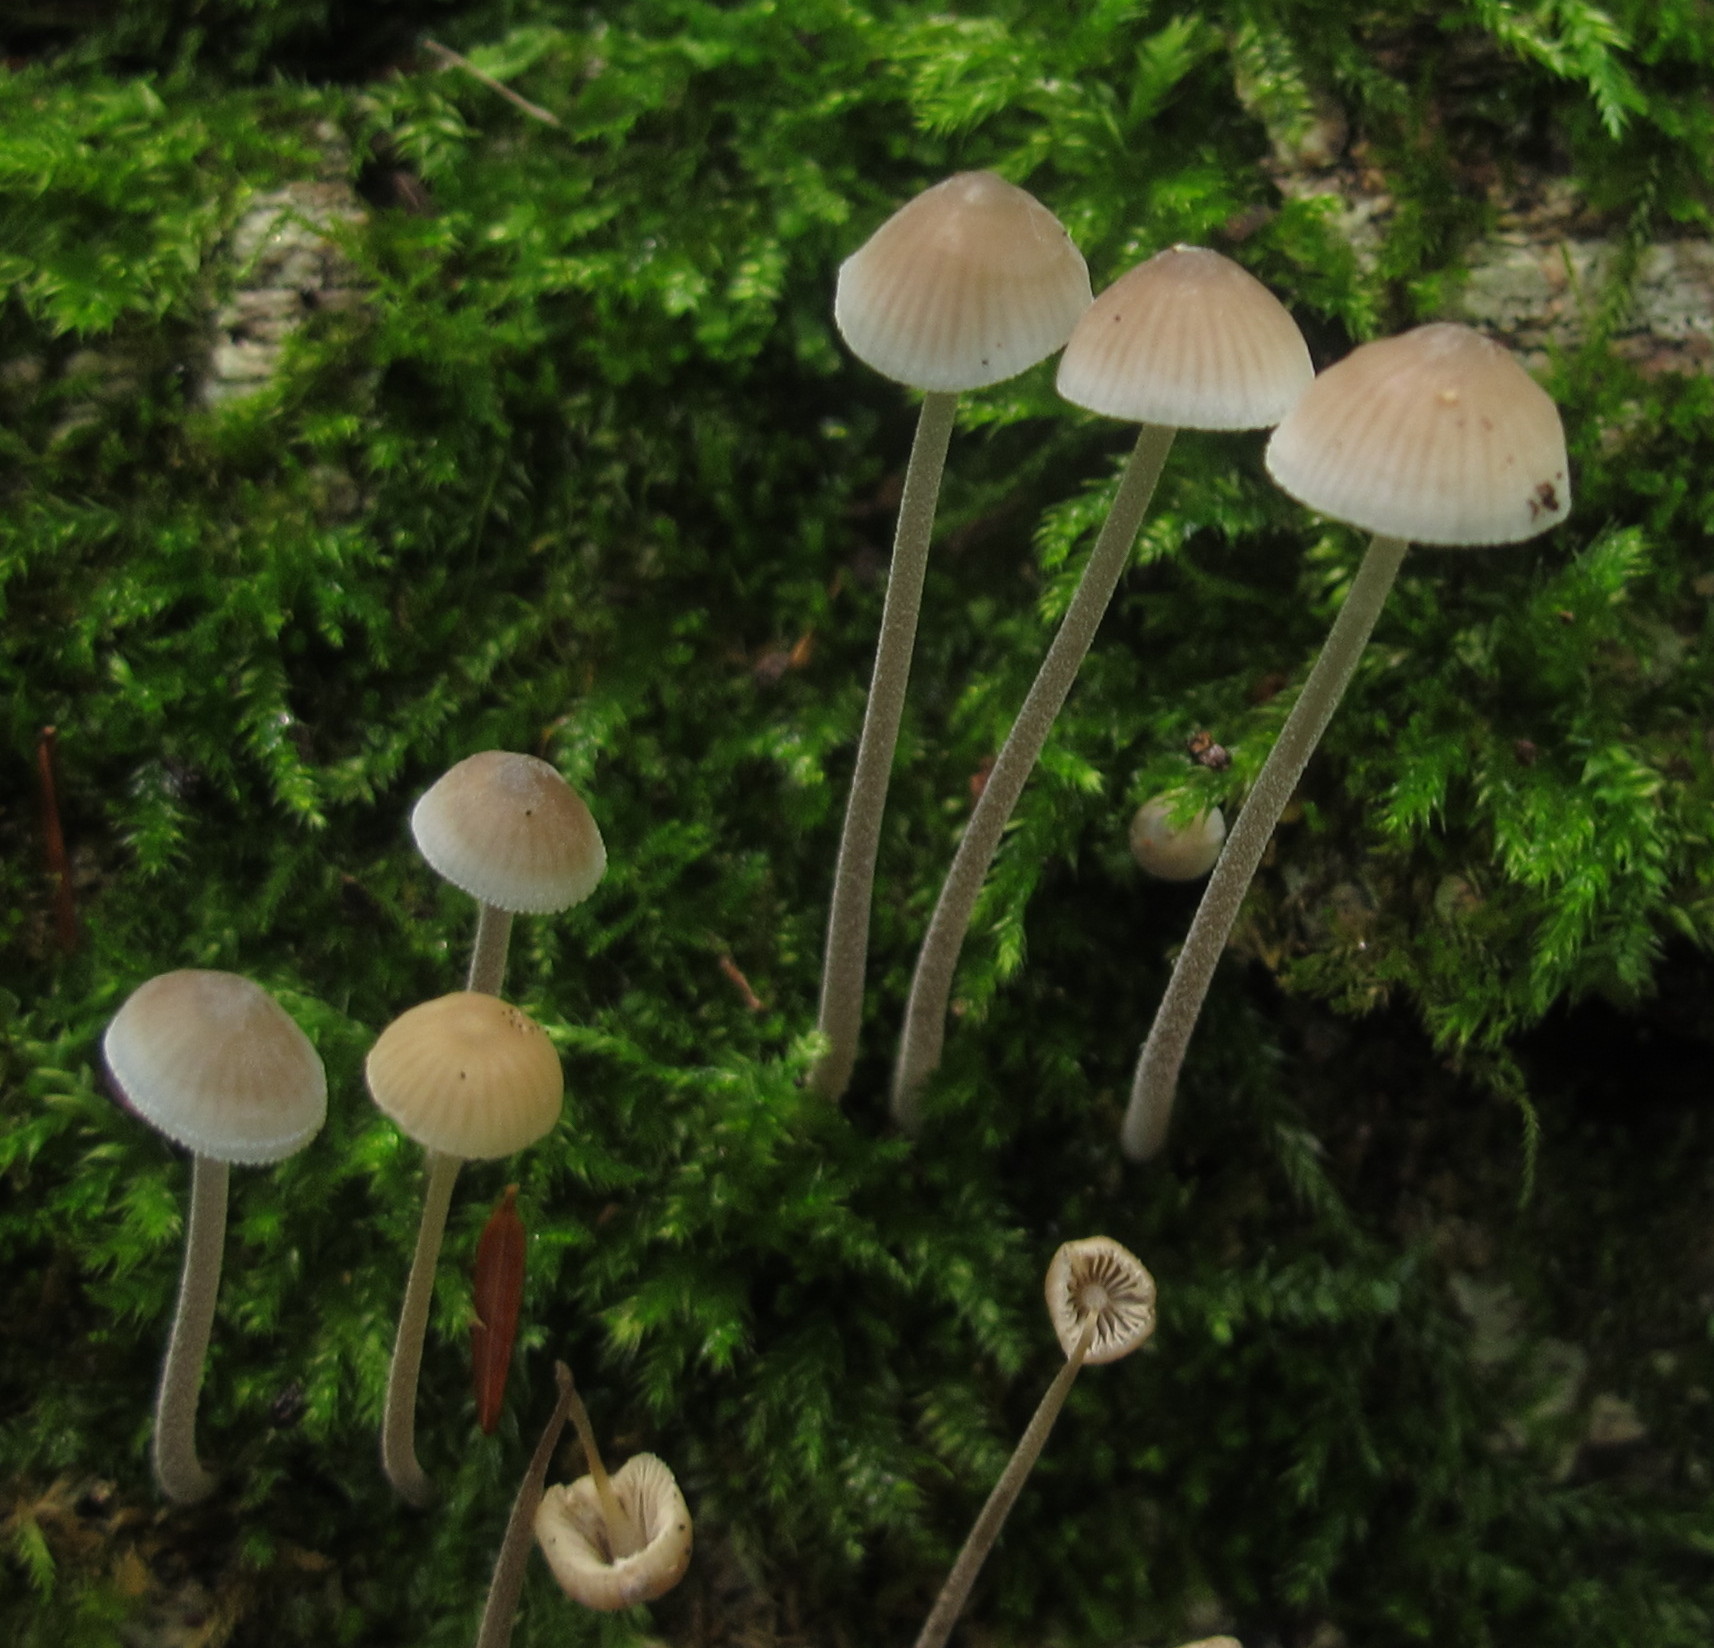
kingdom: Fungi
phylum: Basidiomycota
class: Agaricomycetes
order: Agaricales
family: Mycenaceae
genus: Mycena
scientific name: Mycena subcaerulea
